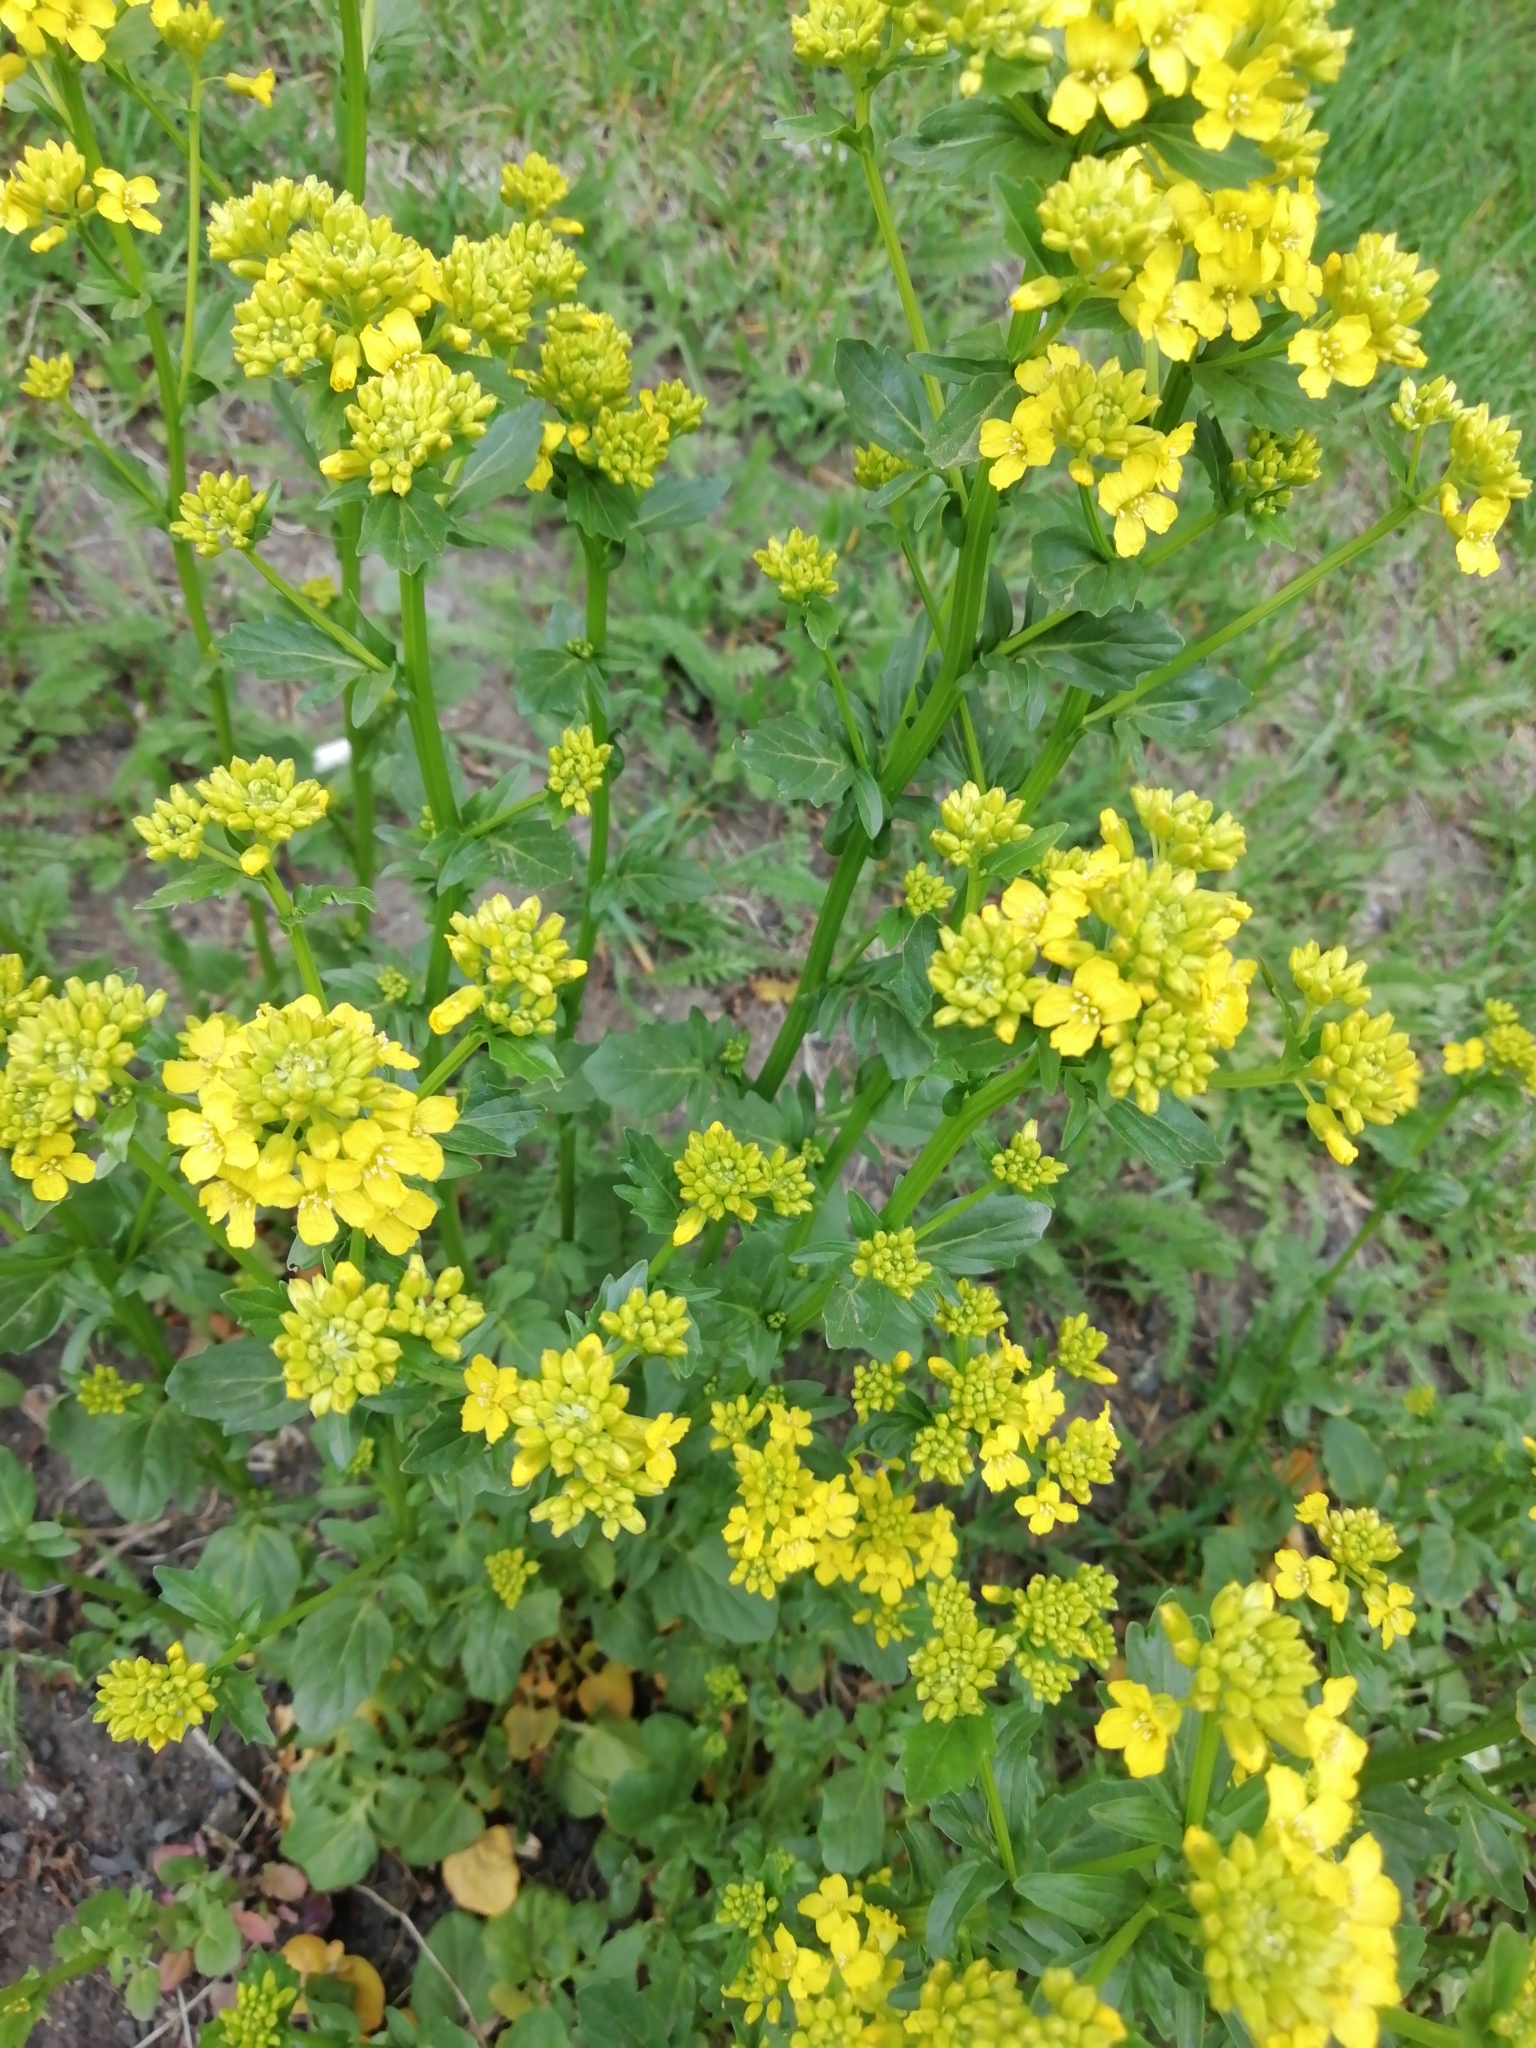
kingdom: Plantae
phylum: Tracheophyta
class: Magnoliopsida
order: Brassicales
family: Brassicaceae
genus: Barbarea
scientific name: Barbarea vulgaris
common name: Cressy-greens
